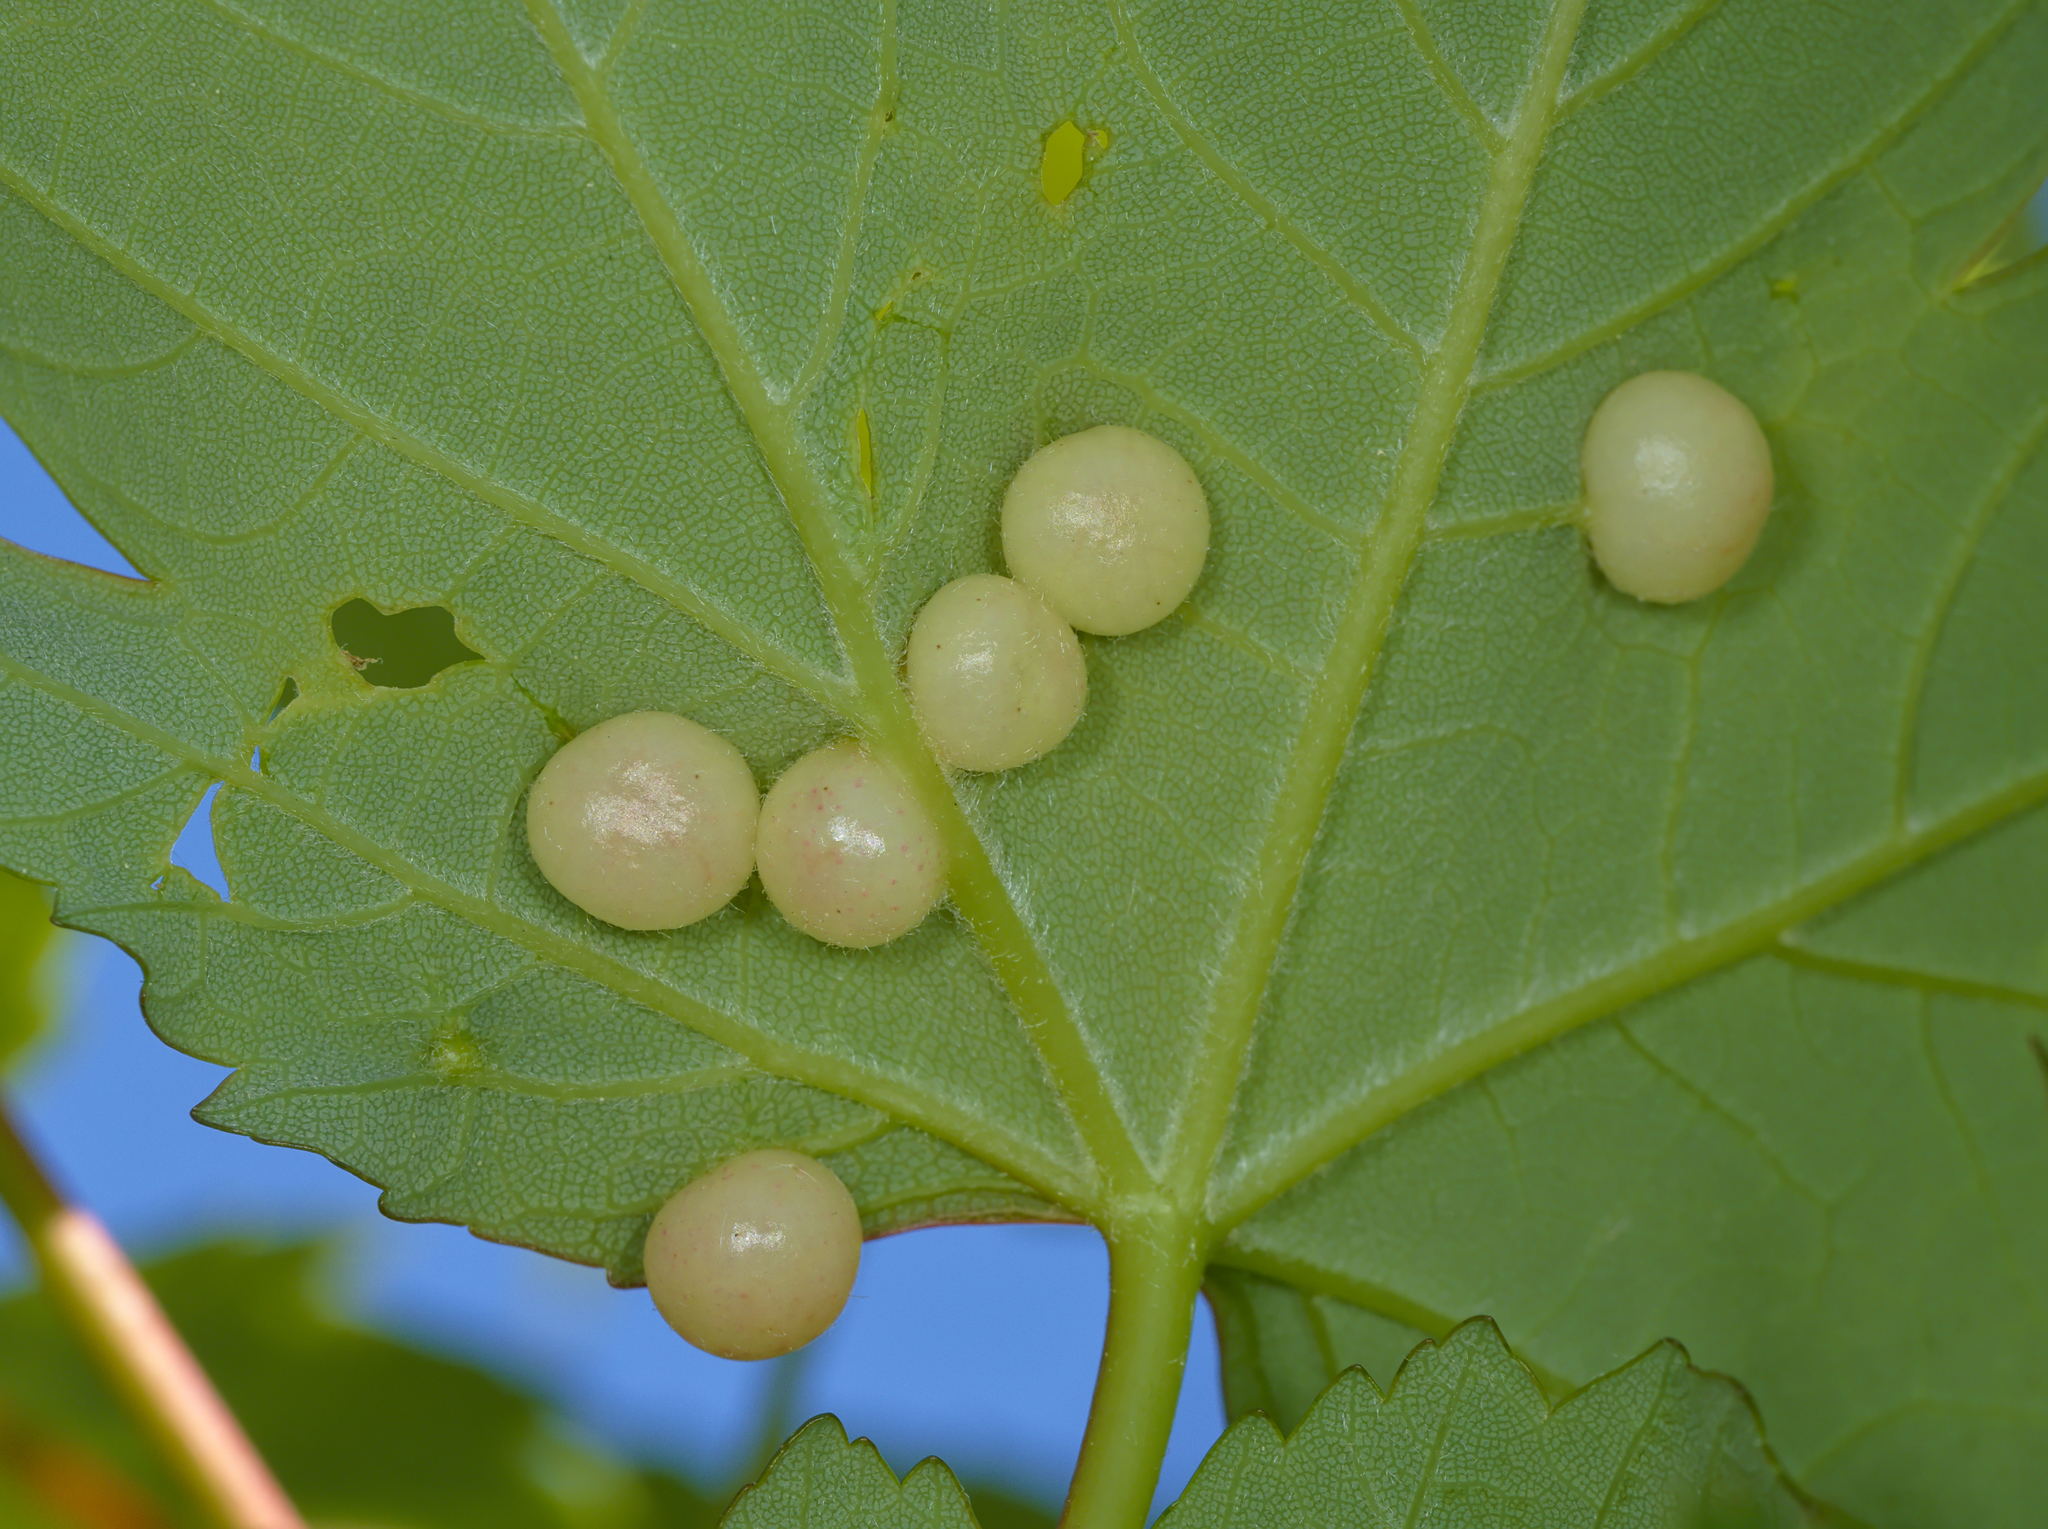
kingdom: Animalia
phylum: Arthropoda
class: Insecta
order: Hymenoptera
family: Cynipidae
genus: Pediaspis
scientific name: Pediaspis aceris
